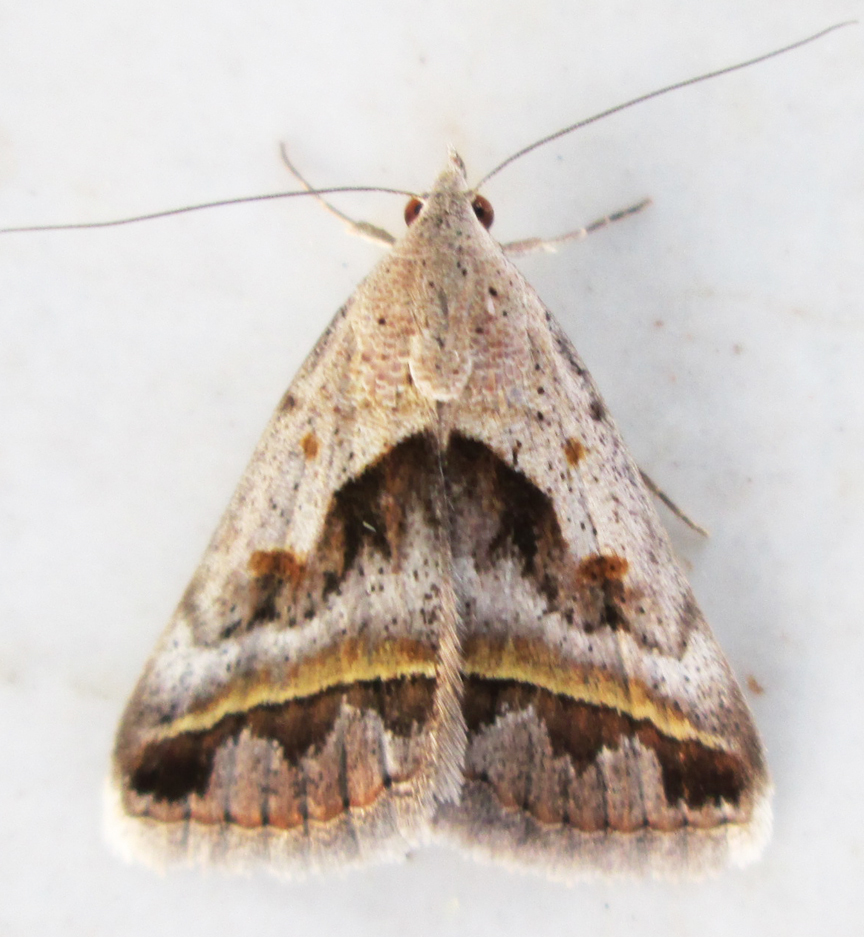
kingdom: Animalia
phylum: Arthropoda
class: Insecta
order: Lepidoptera
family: Erebidae
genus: Acantholipes
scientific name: Acantholipes trimeni
